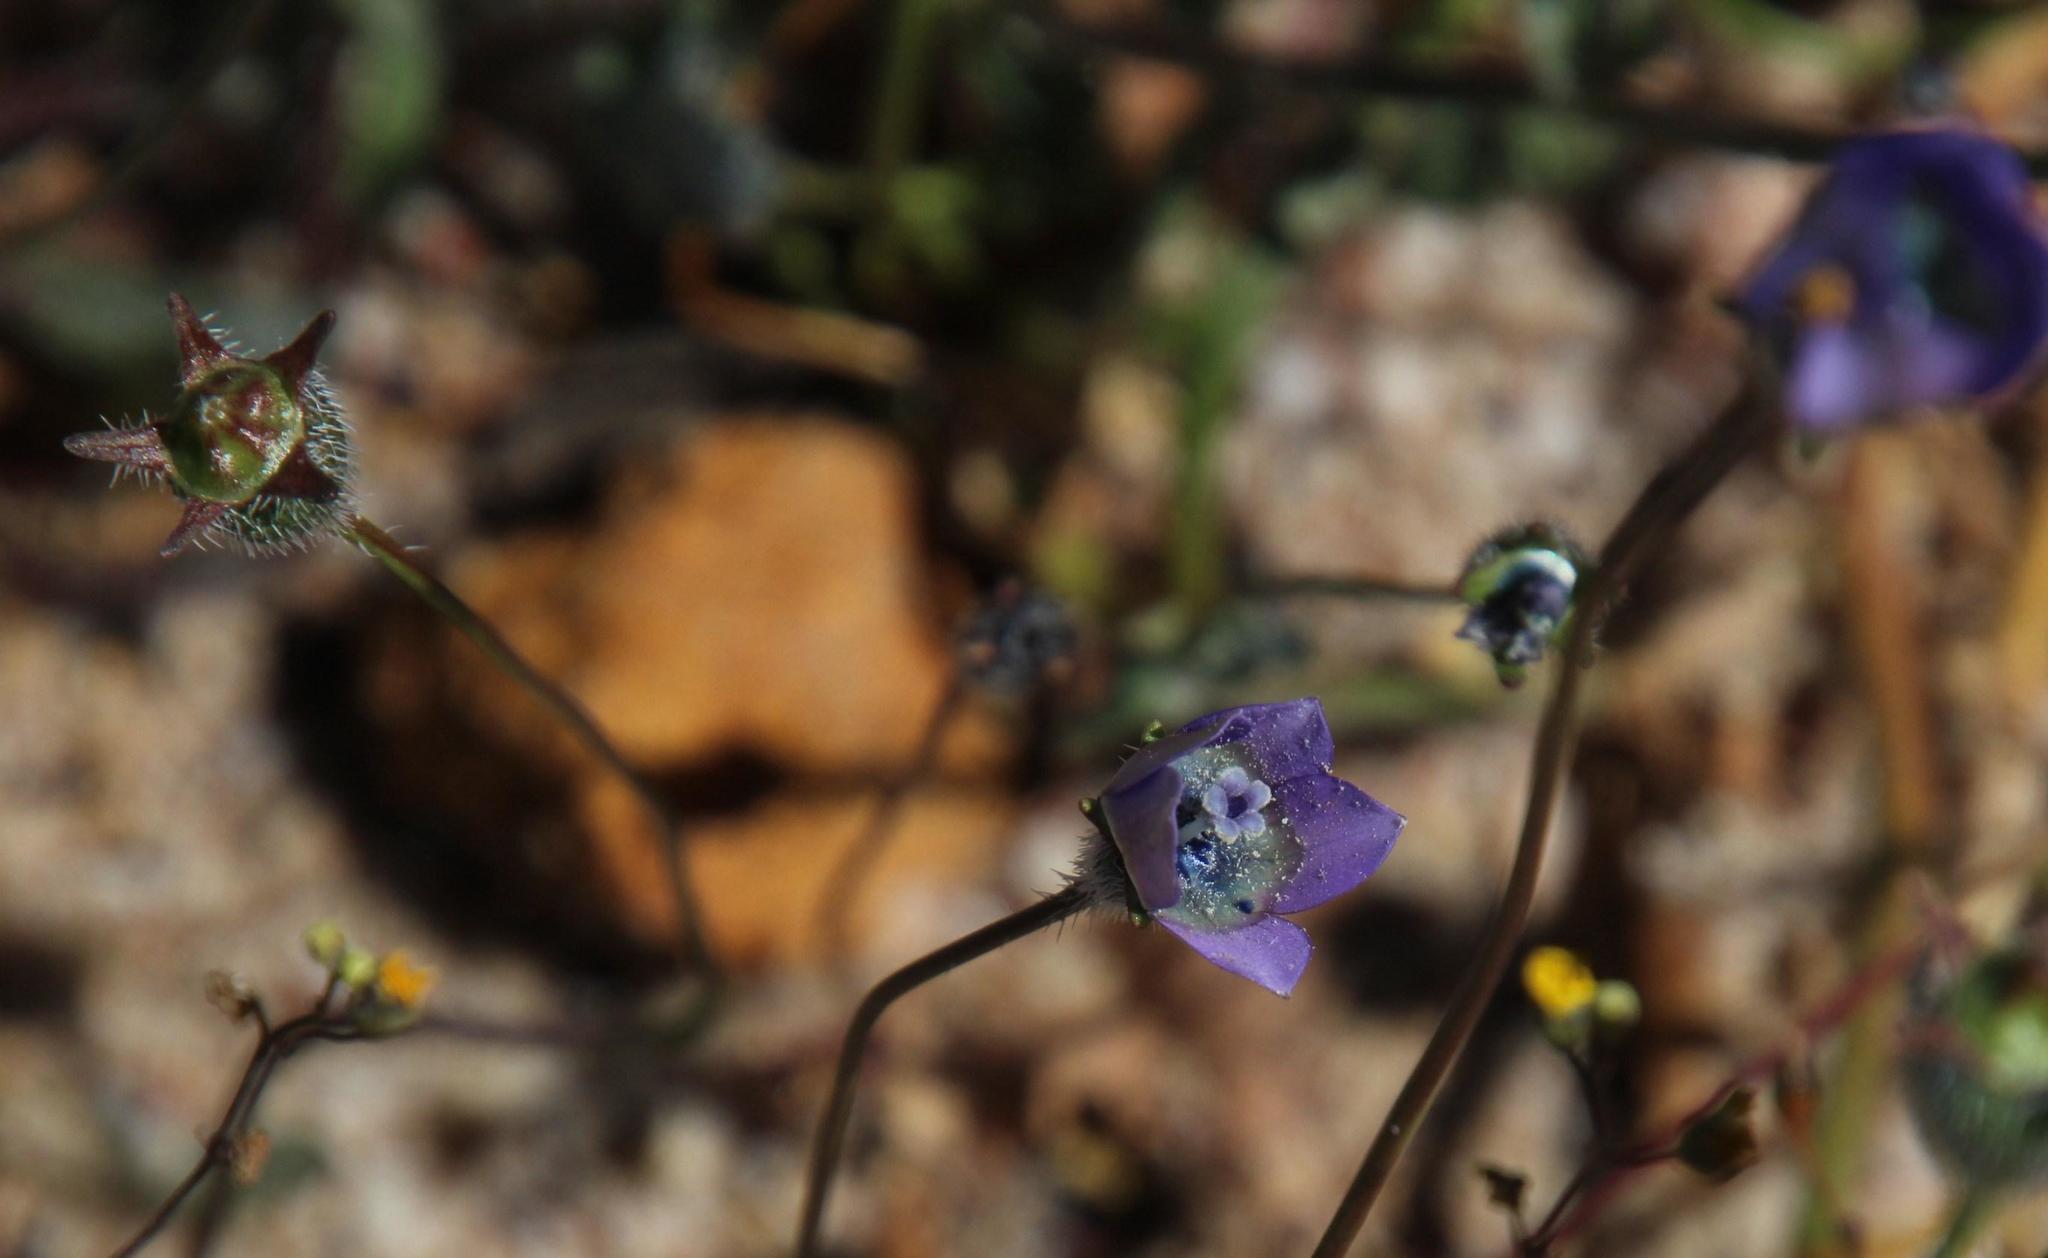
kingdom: Plantae
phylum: Tracheophyta
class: Magnoliopsida
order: Asterales
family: Campanulaceae
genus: Wahlenbergia
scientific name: Wahlenbergia capensis
